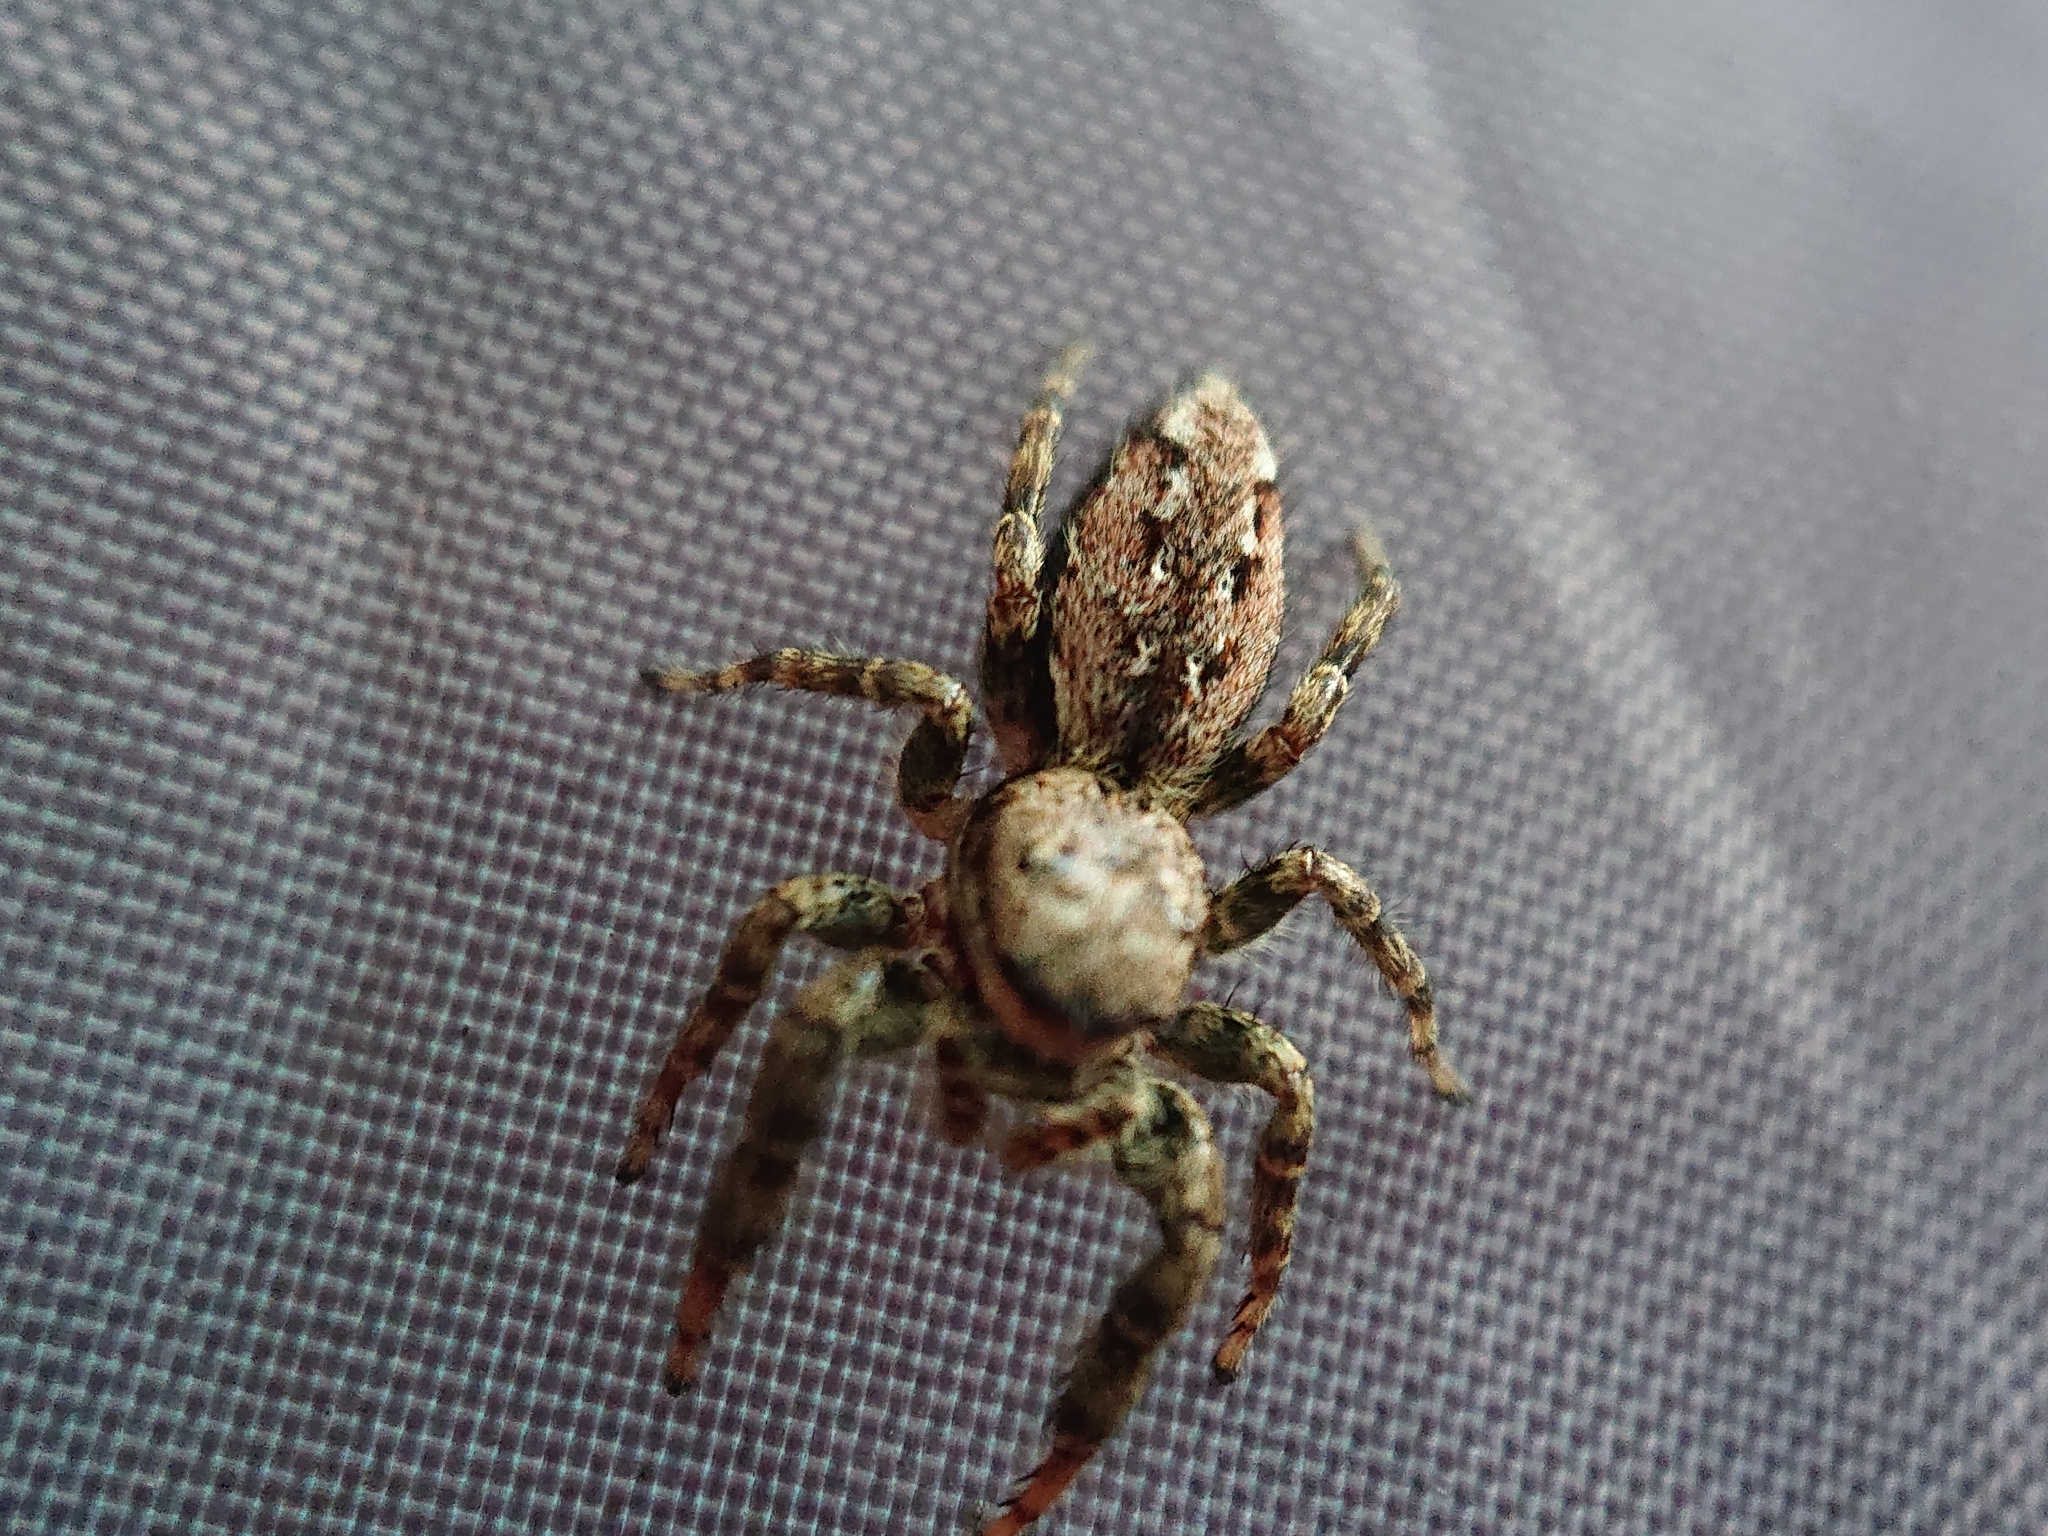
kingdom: Animalia
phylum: Arthropoda
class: Arachnida
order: Araneae
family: Salticidae
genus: Marpissa
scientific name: Marpissa muscosa
